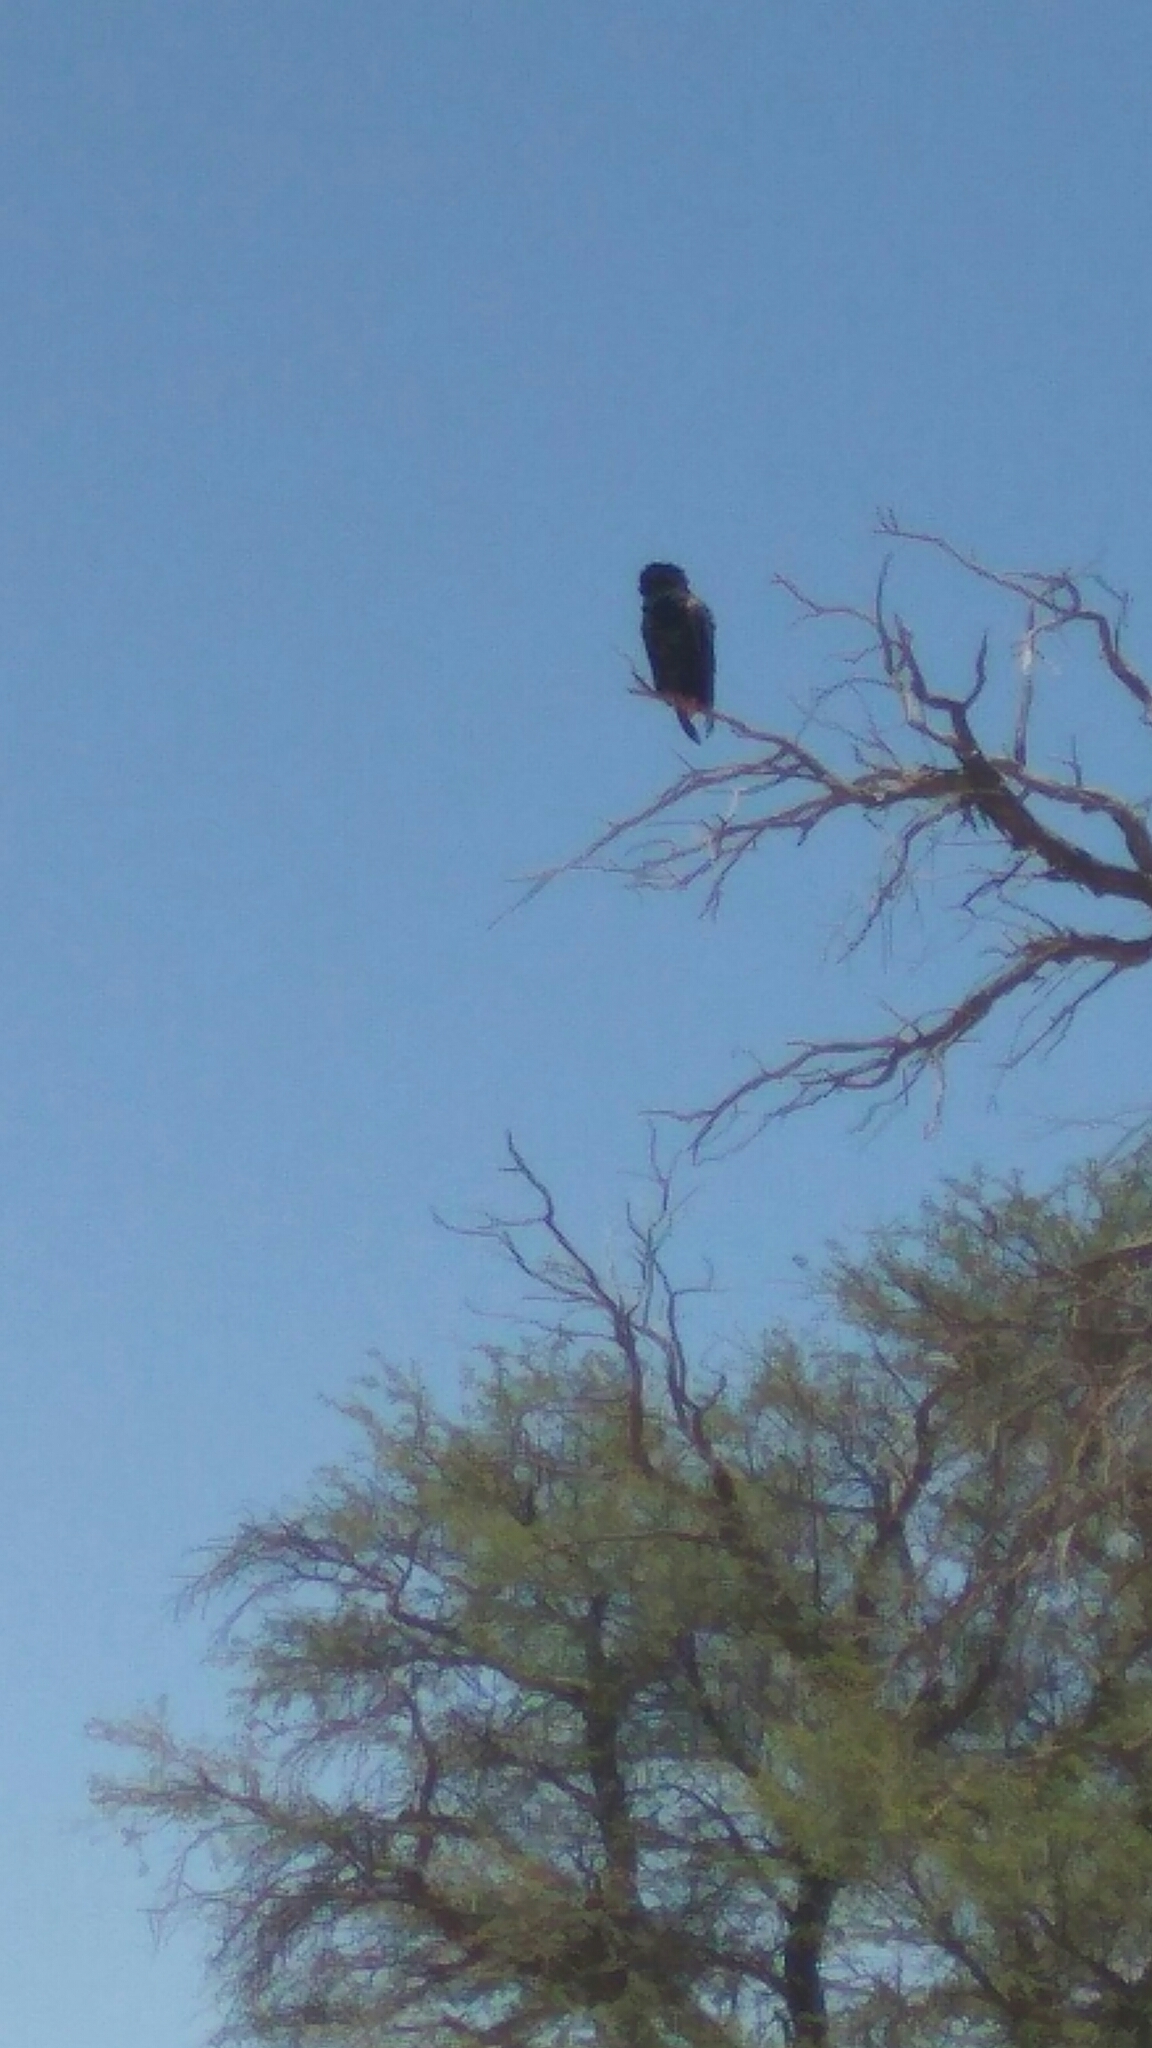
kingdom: Animalia
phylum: Chordata
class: Aves
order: Accipitriformes
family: Accipitridae
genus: Terathopius
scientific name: Terathopius ecaudatus
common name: Bateleur
